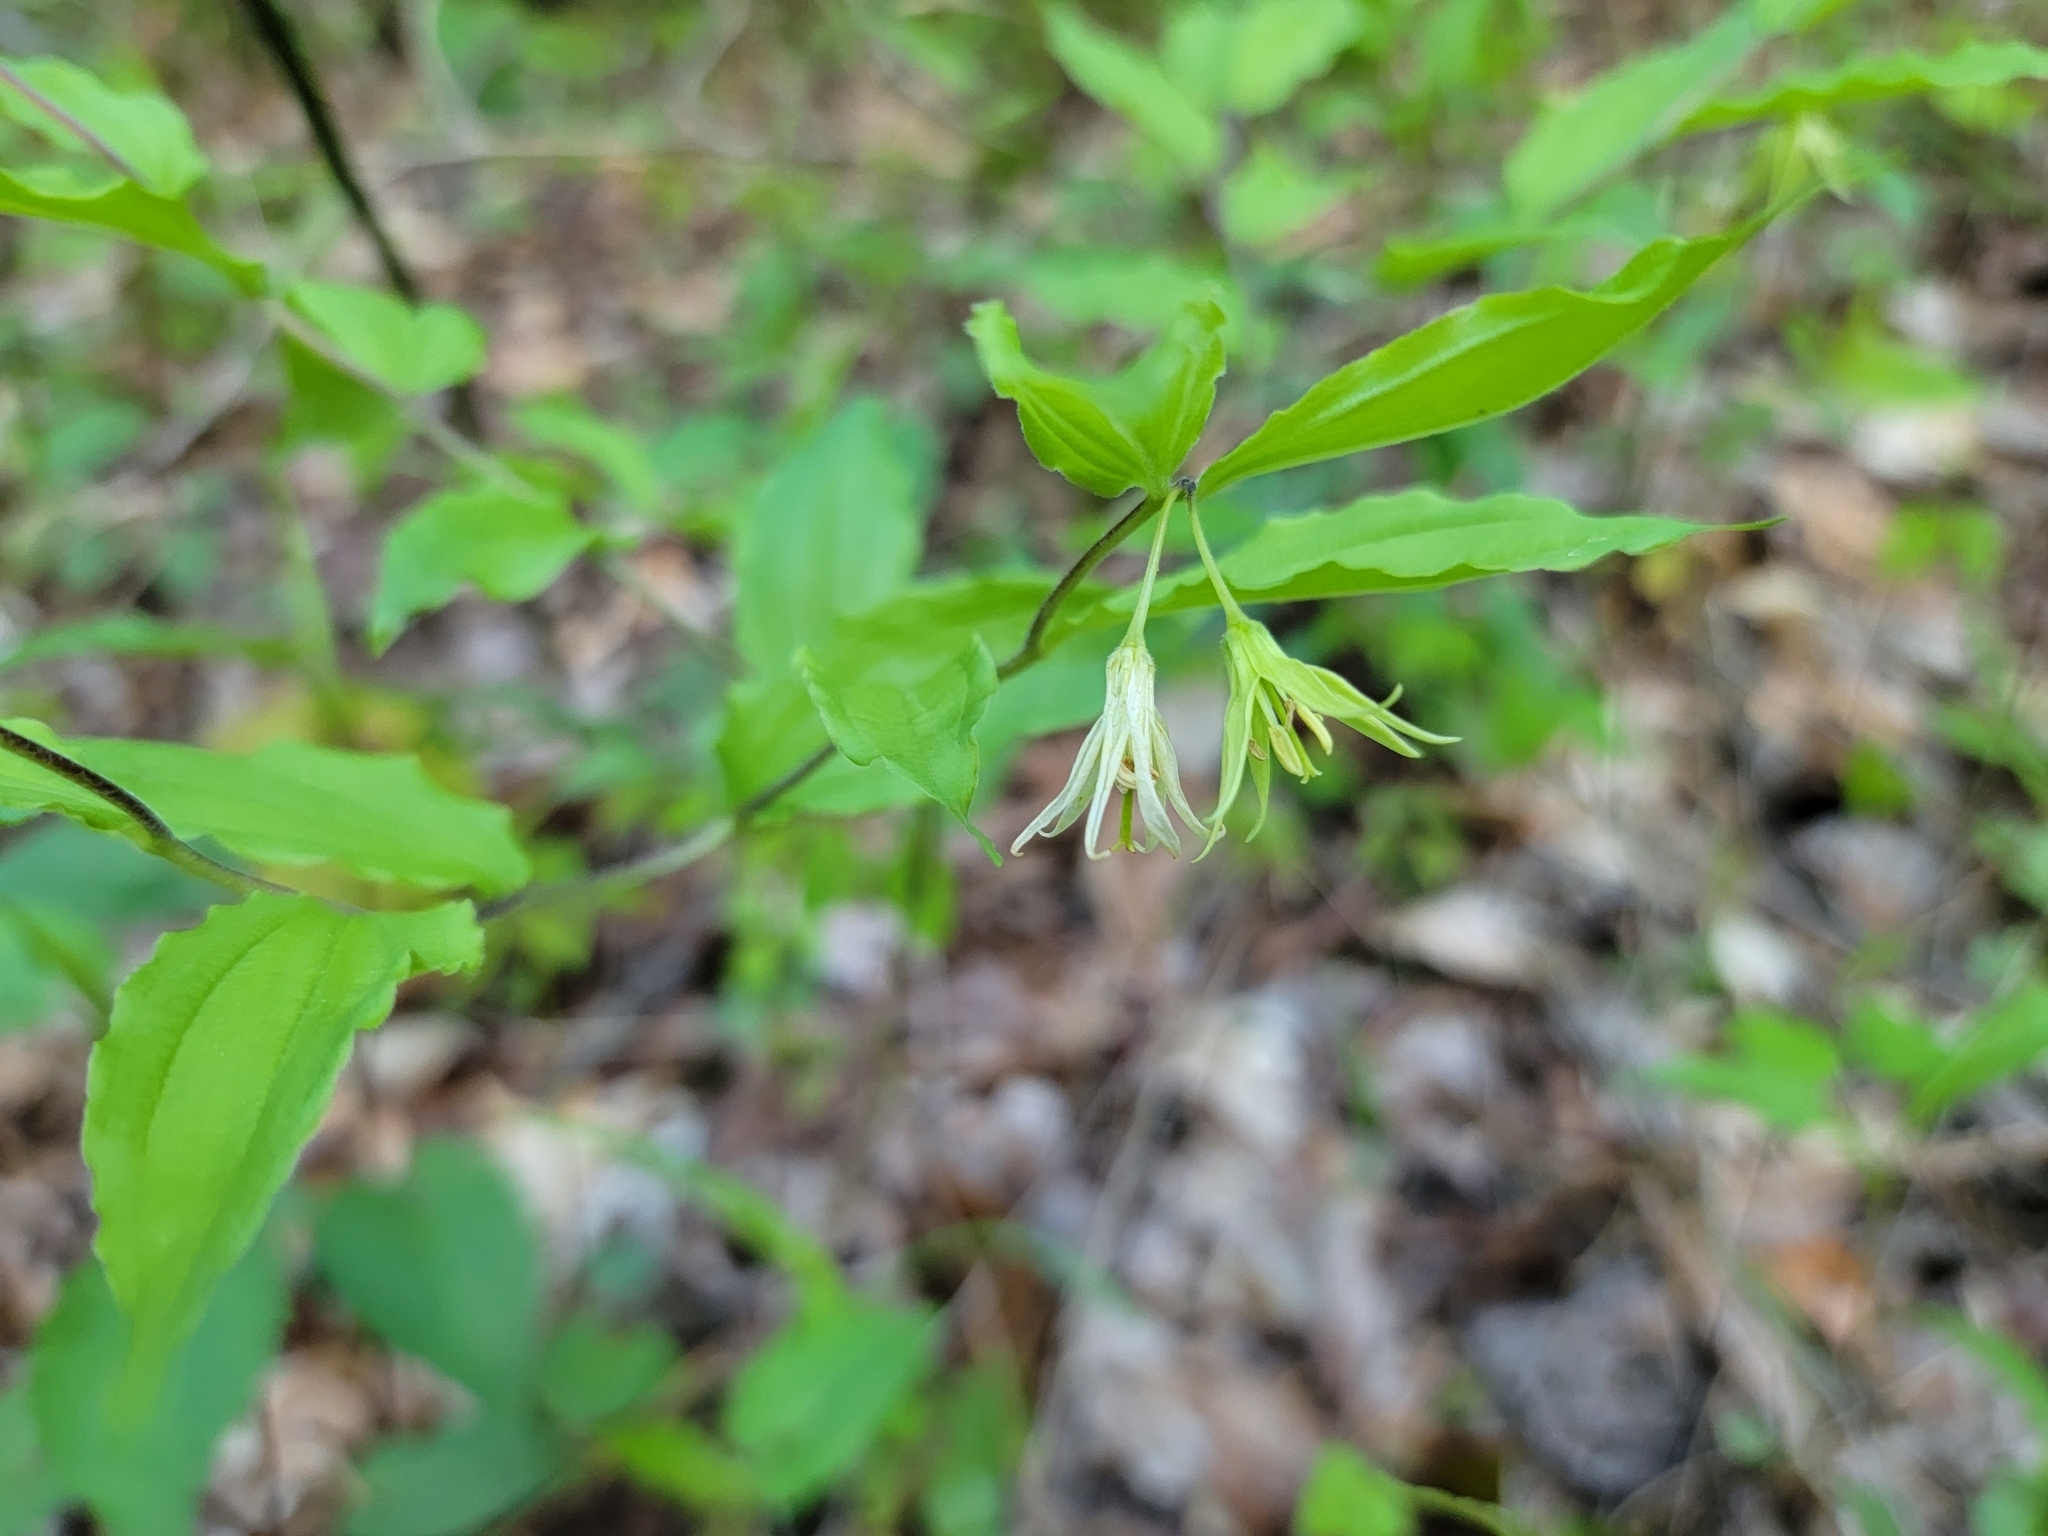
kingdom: Plantae
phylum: Tracheophyta
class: Liliopsida
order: Liliales
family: Liliaceae
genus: Prosartes
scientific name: Prosartes lanuginosa
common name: Hairy mandarin
